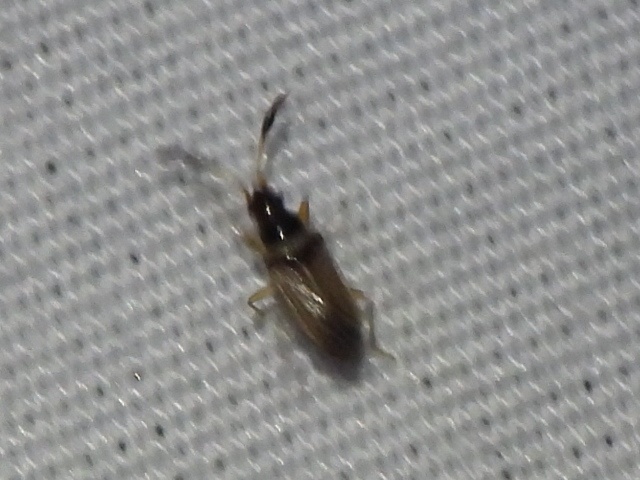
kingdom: Animalia
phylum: Arthropoda
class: Insecta
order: Hemiptera
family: Rhyparochromidae
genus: Ptochiomera
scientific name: Ptochiomera nodosa
